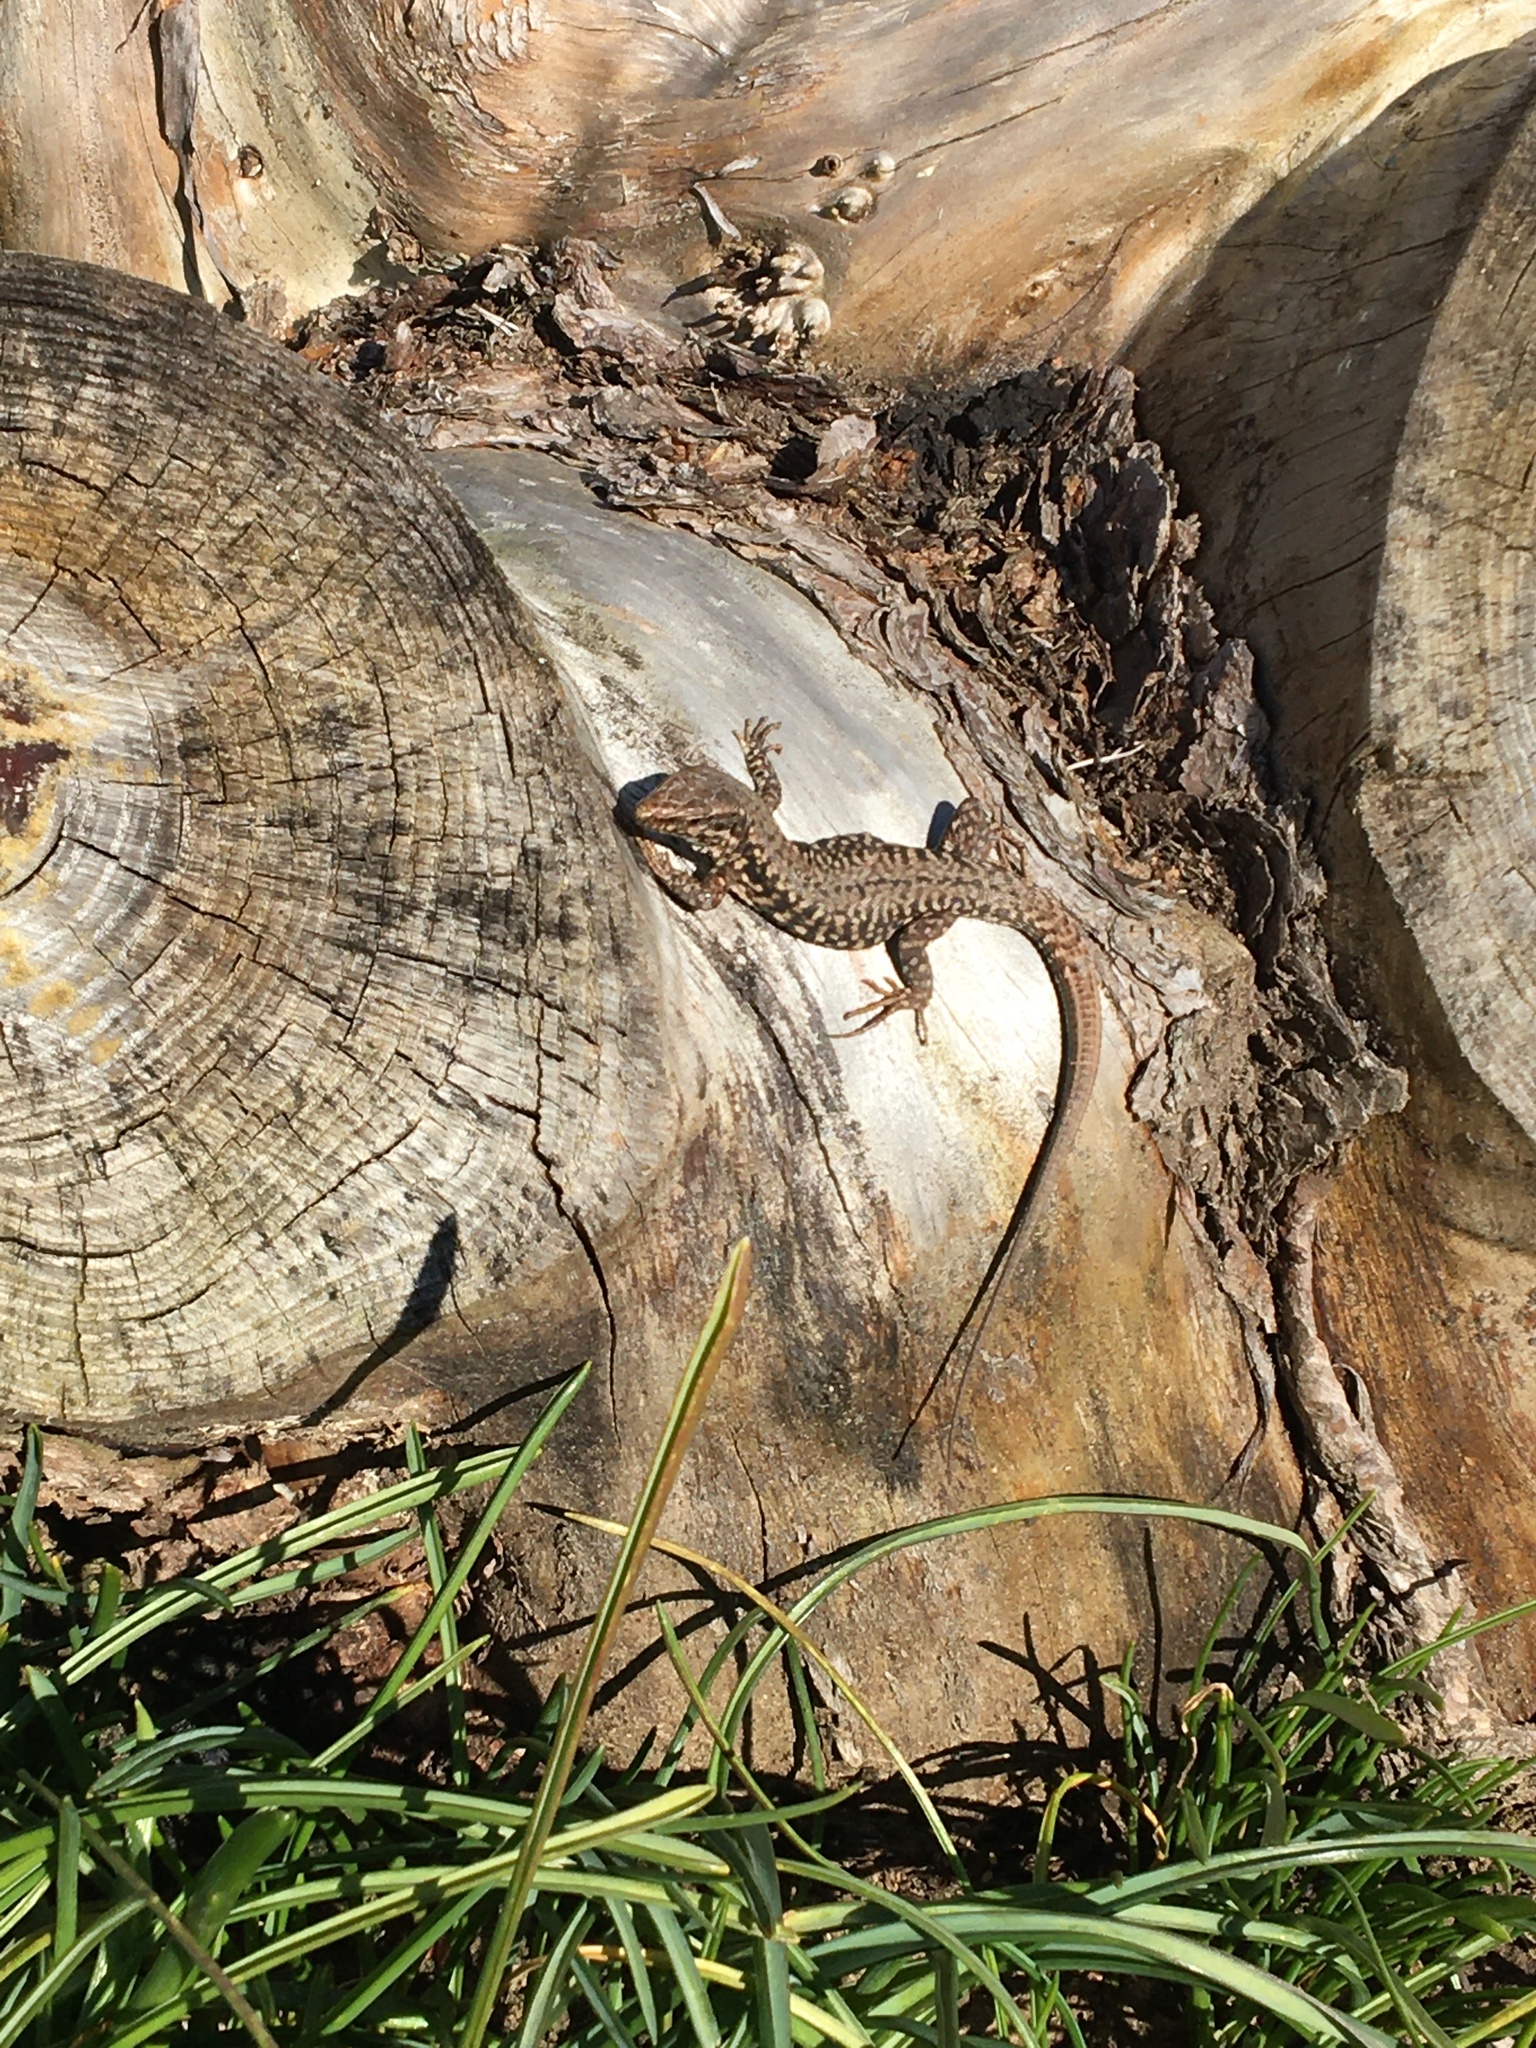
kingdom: Animalia
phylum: Chordata
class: Squamata
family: Lacertidae
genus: Podarcis
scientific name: Podarcis muralis
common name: Common wall lizard
